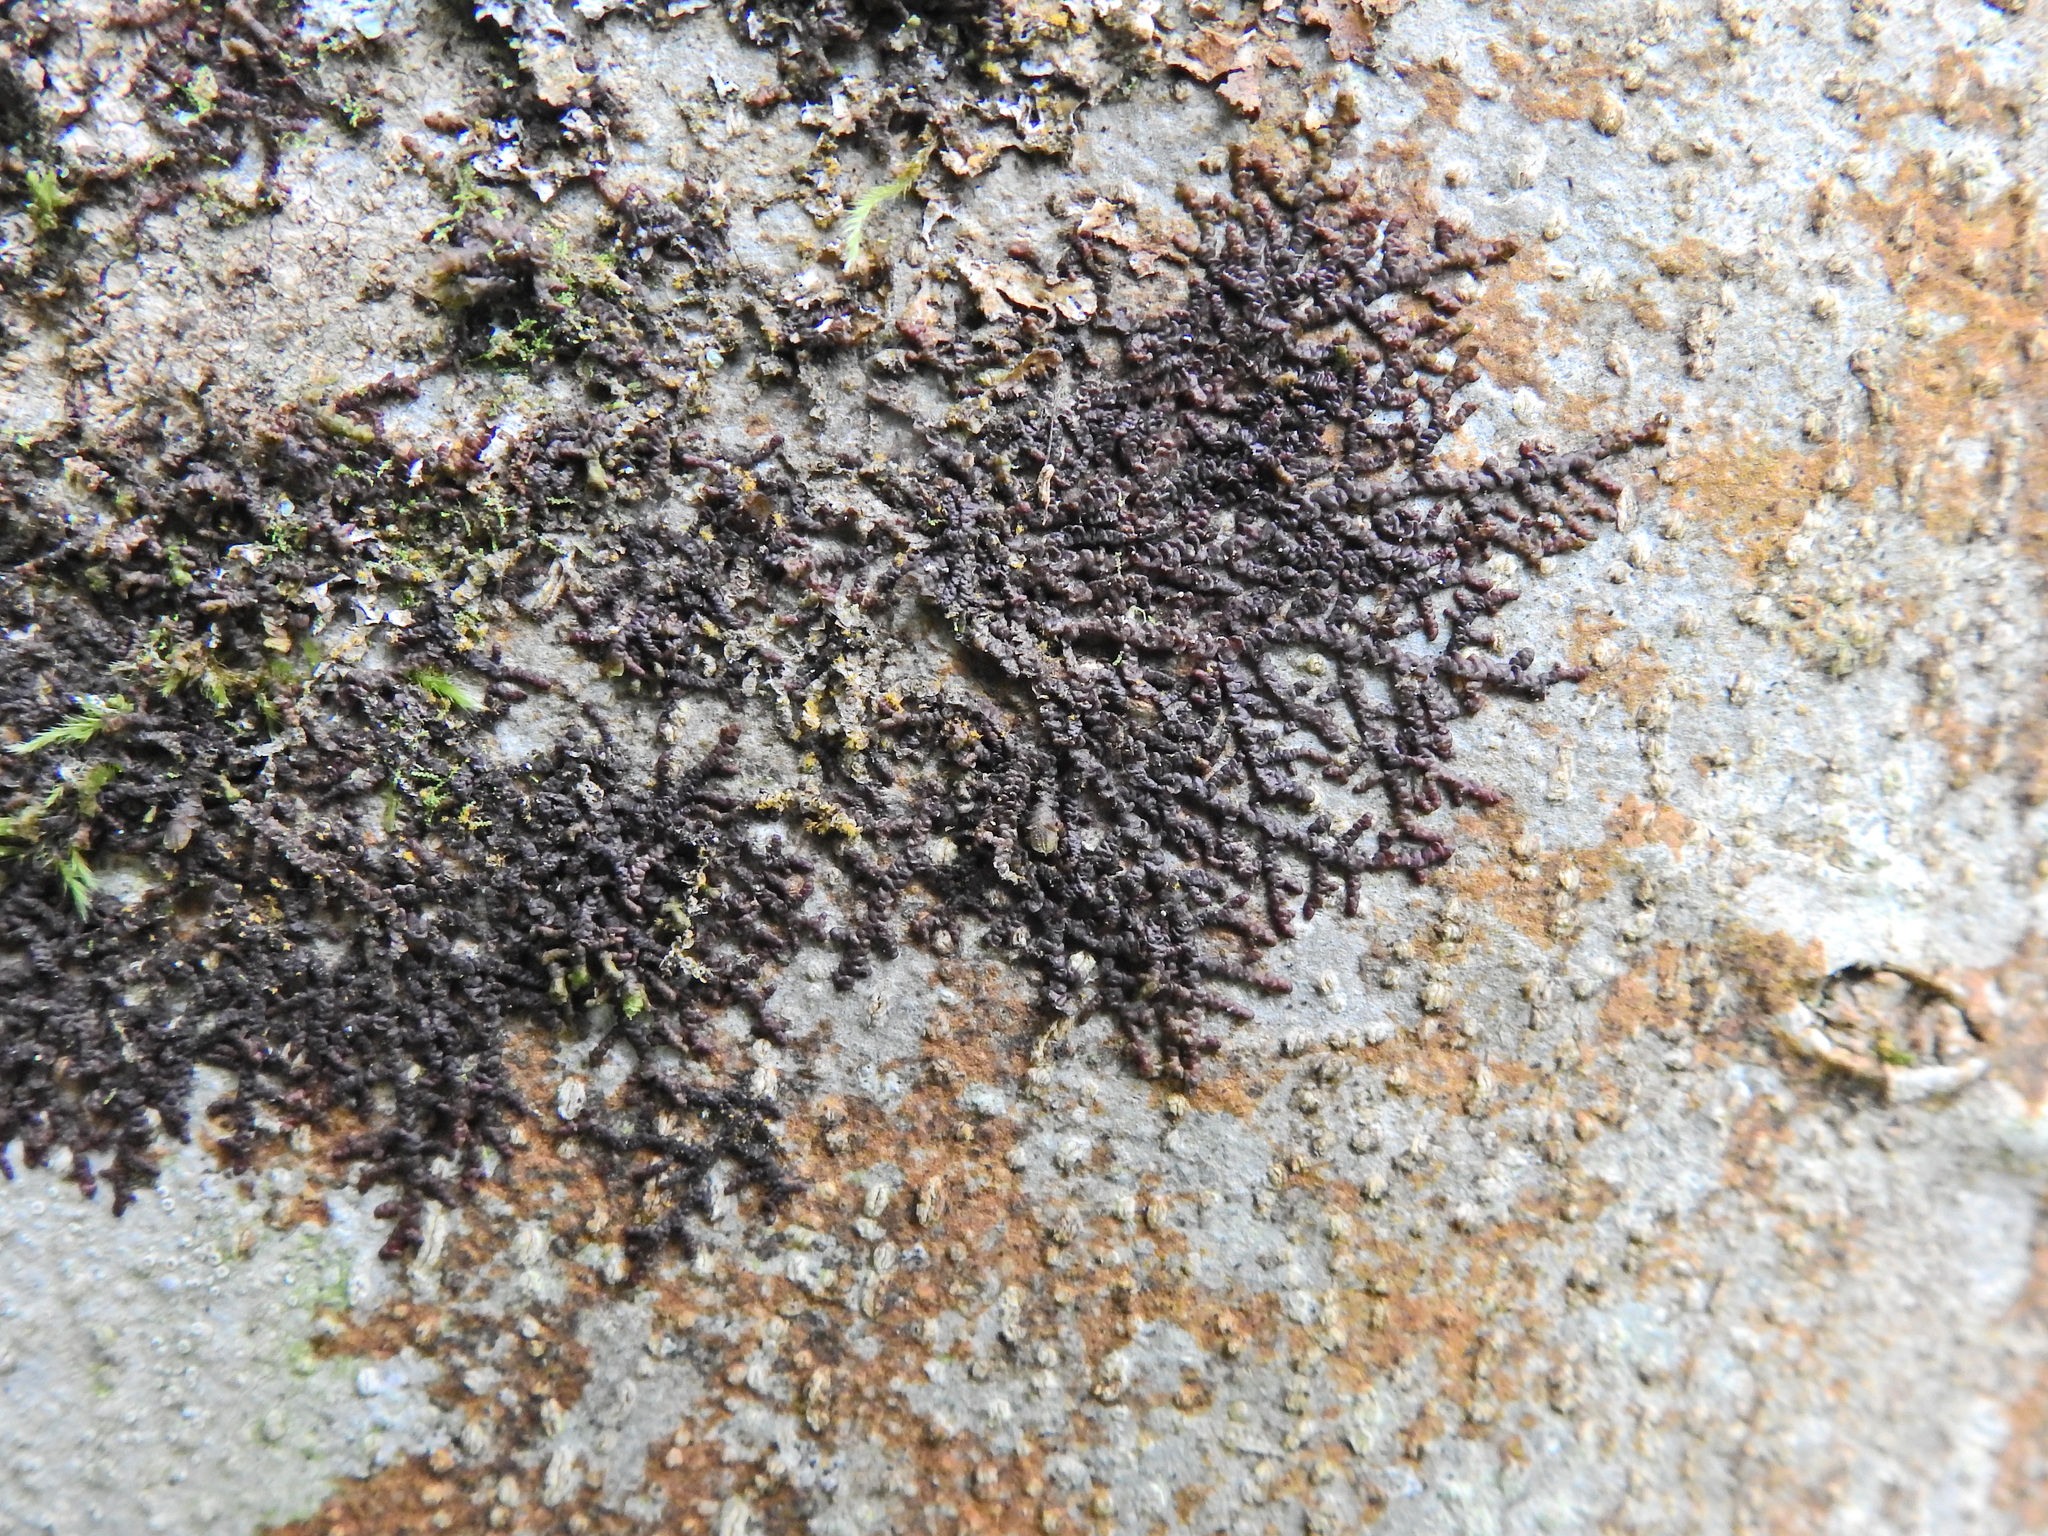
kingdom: Plantae
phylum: Marchantiophyta
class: Jungermanniopsida
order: Porellales
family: Frullaniaceae
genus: Frullania
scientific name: Frullania dilatata
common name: Dilated scalewort
